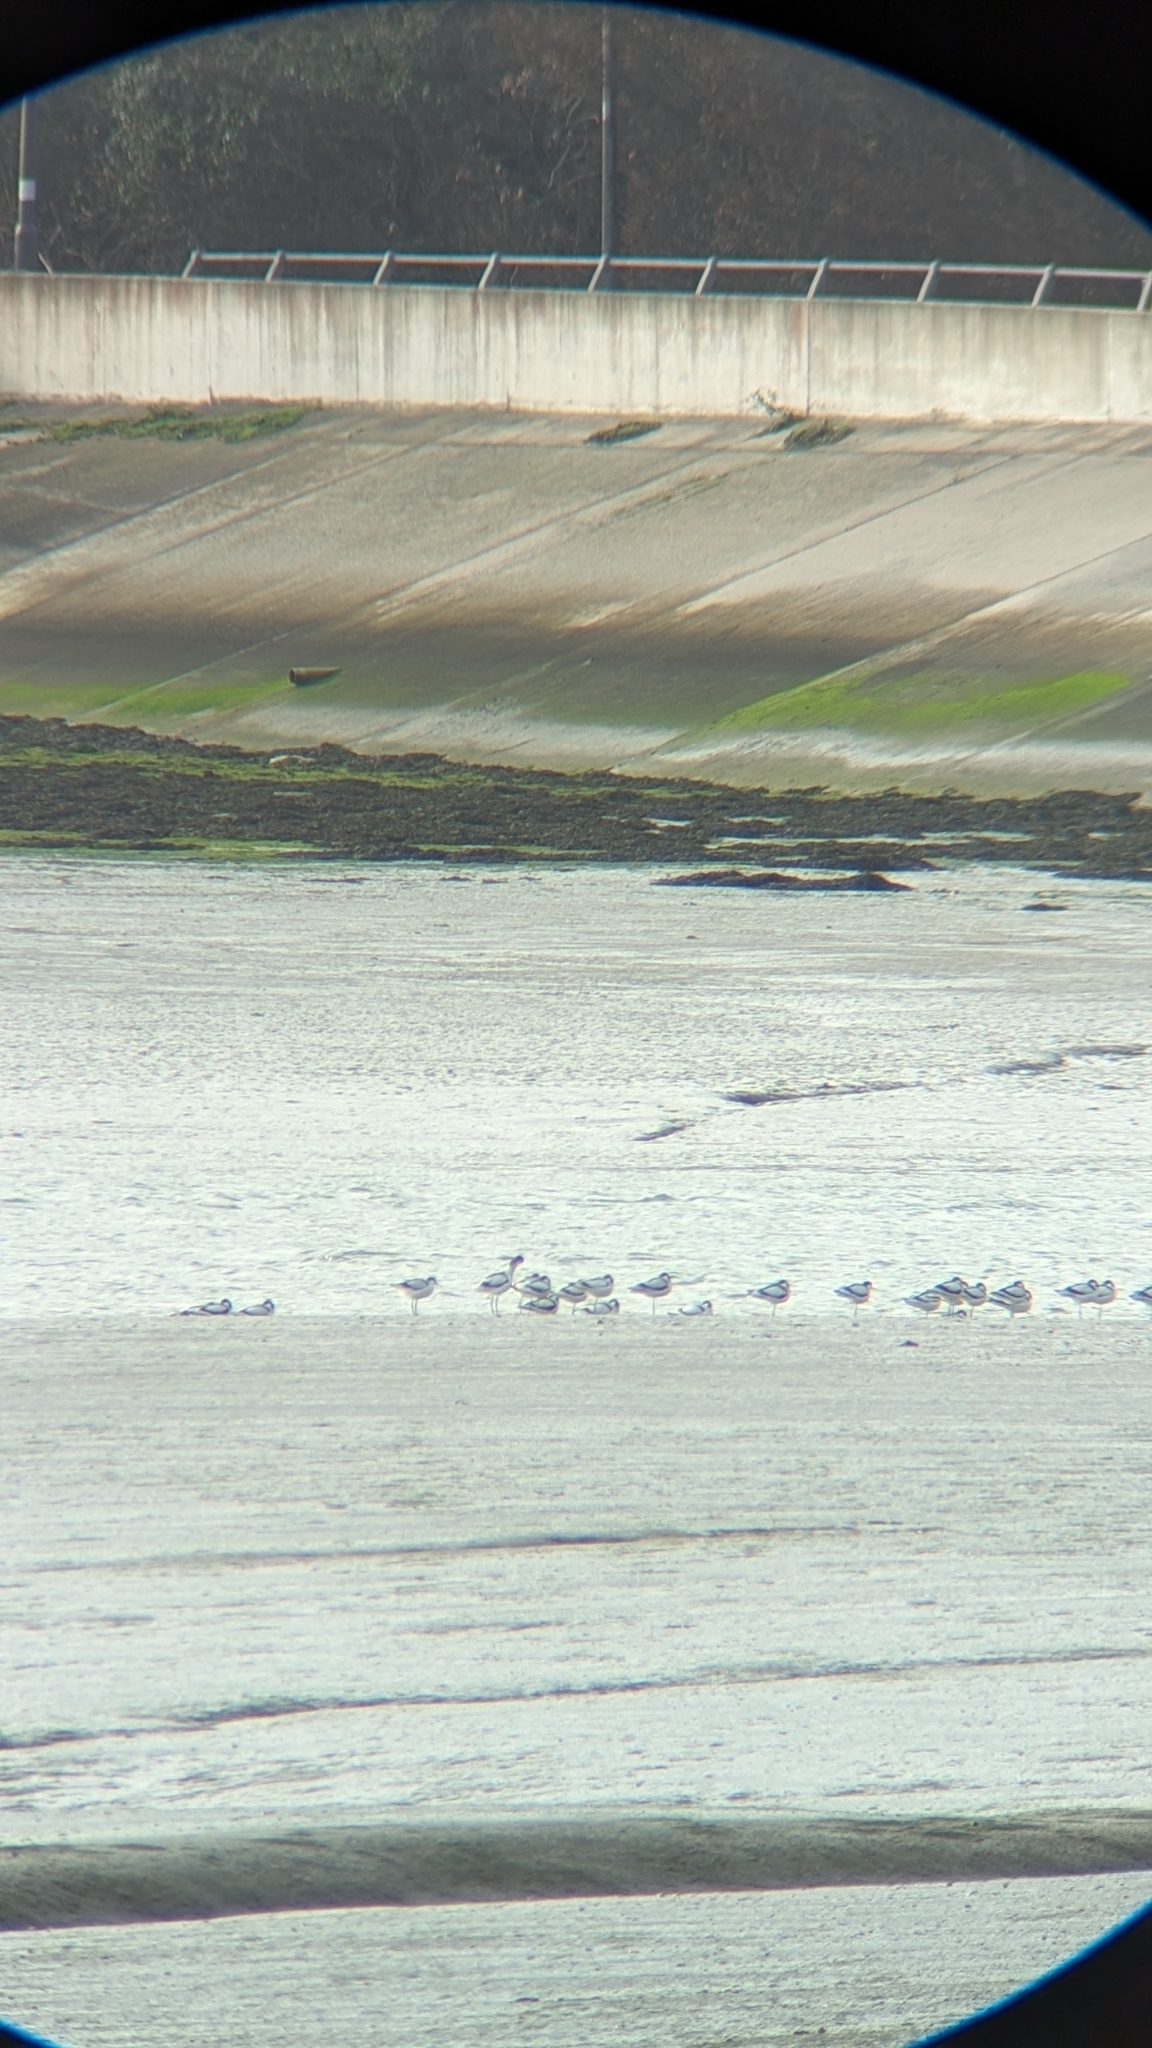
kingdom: Animalia
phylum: Chordata
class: Aves
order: Charadriiformes
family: Recurvirostridae
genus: Recurvirostra
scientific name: Recurvirostra avosetta
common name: Pied avocet
